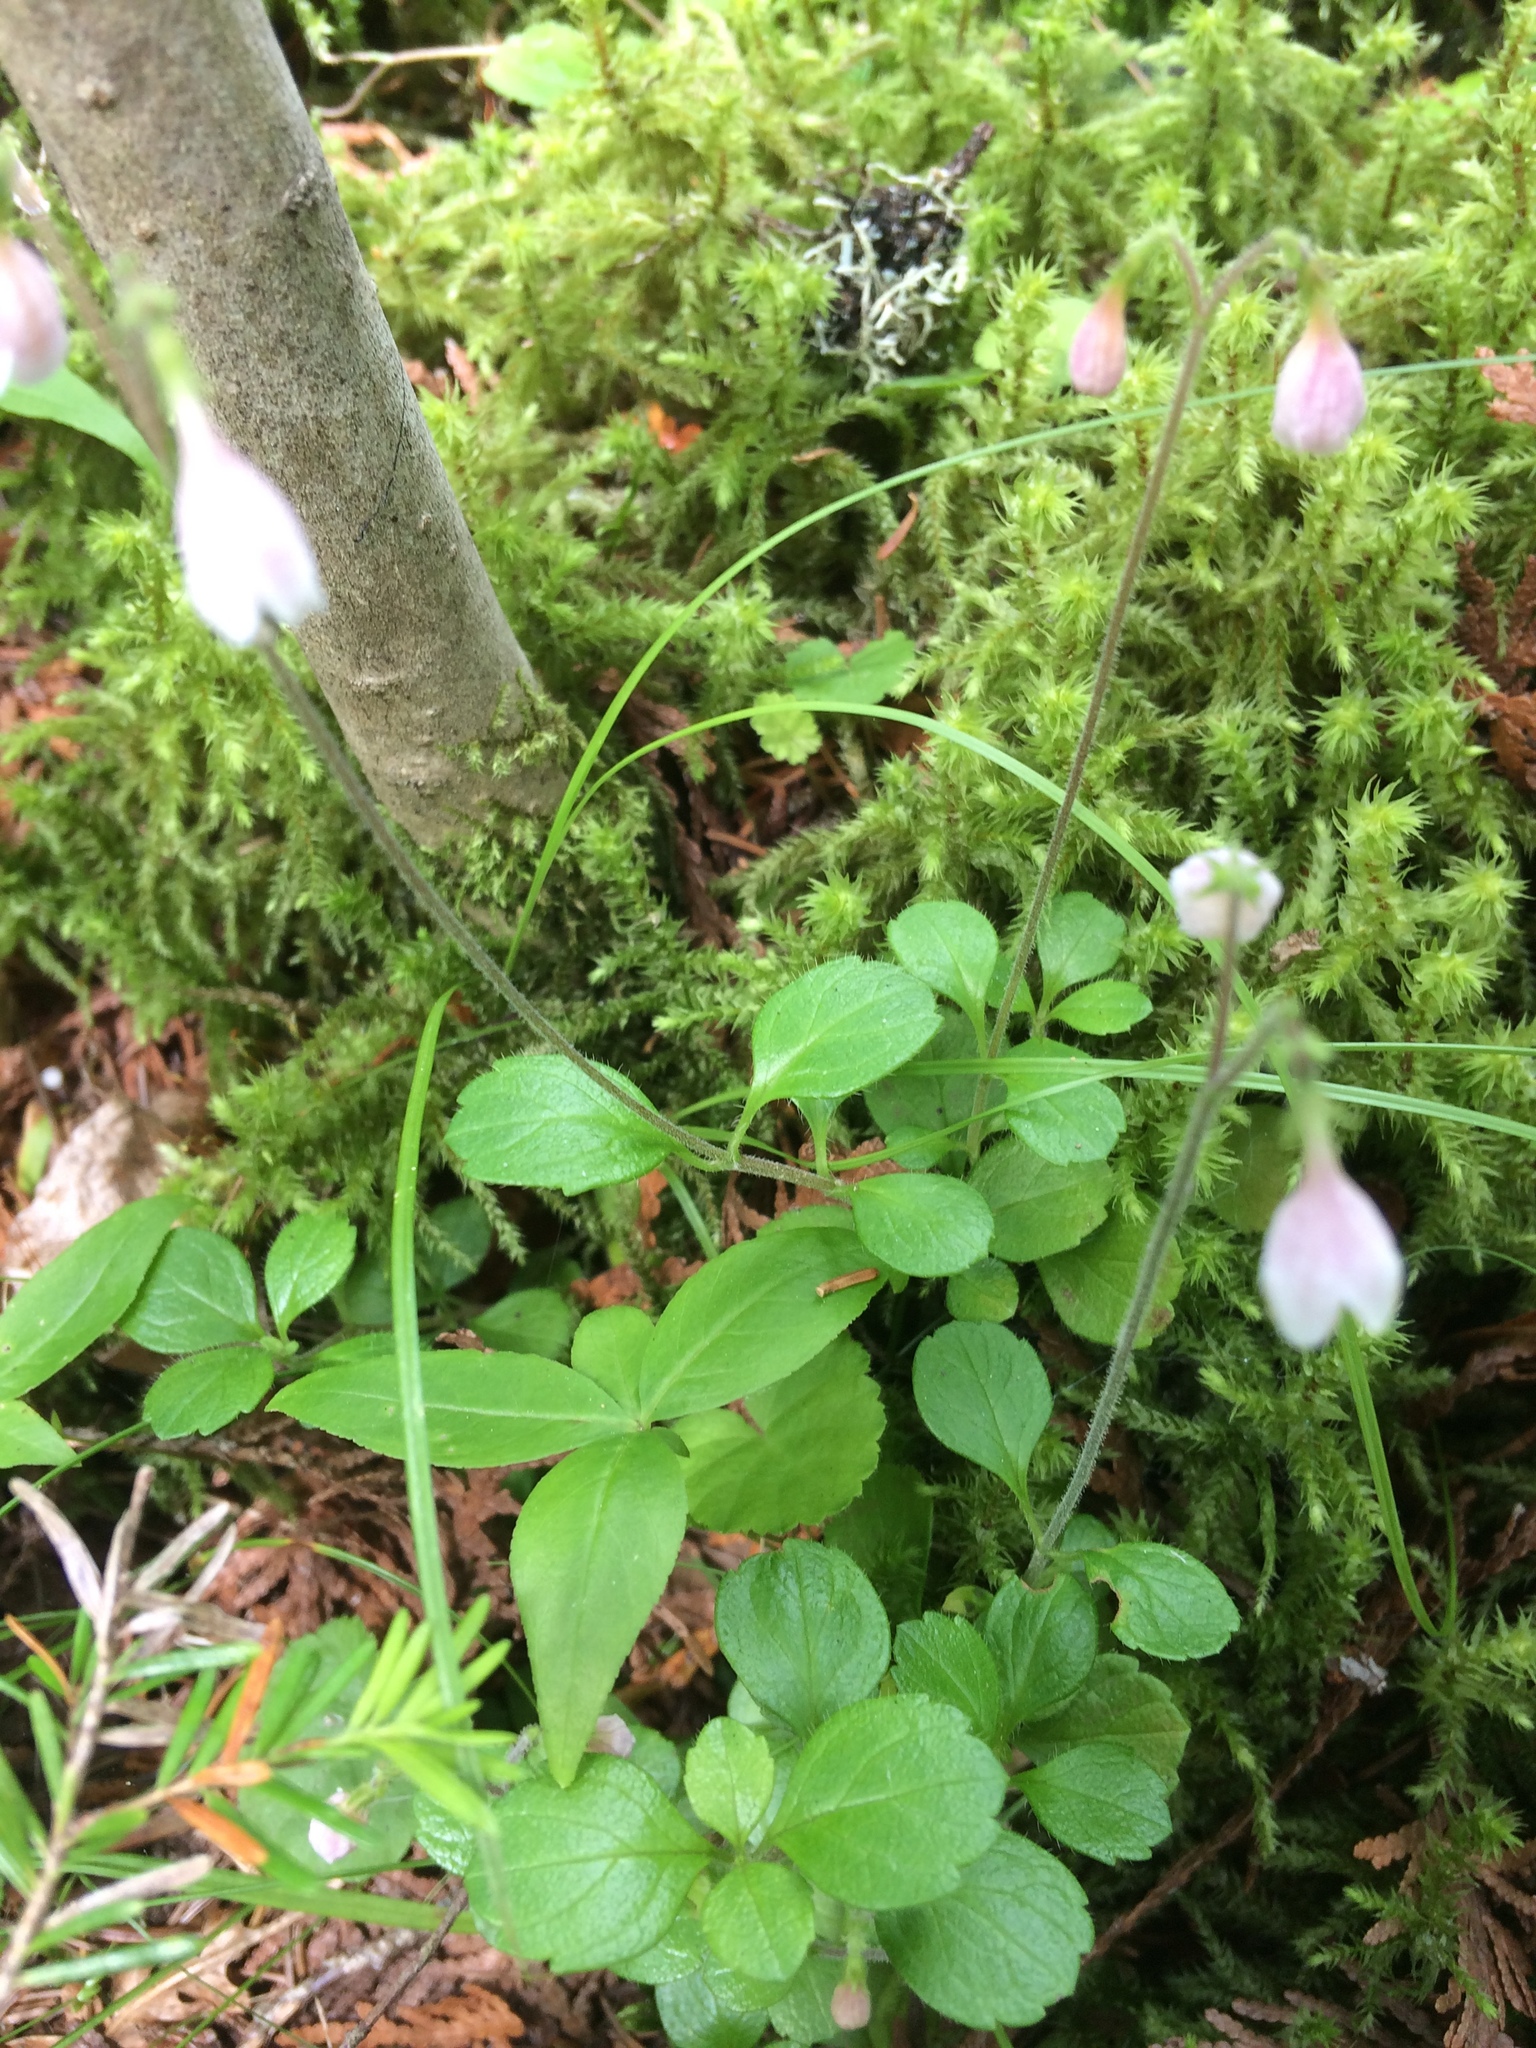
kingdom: Plantae
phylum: Tracheophyta
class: Magnoliopsida
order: Dipsacales
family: Caprifoliaceae
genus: Linnaea
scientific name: Linnaea borealis
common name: Twinflower
